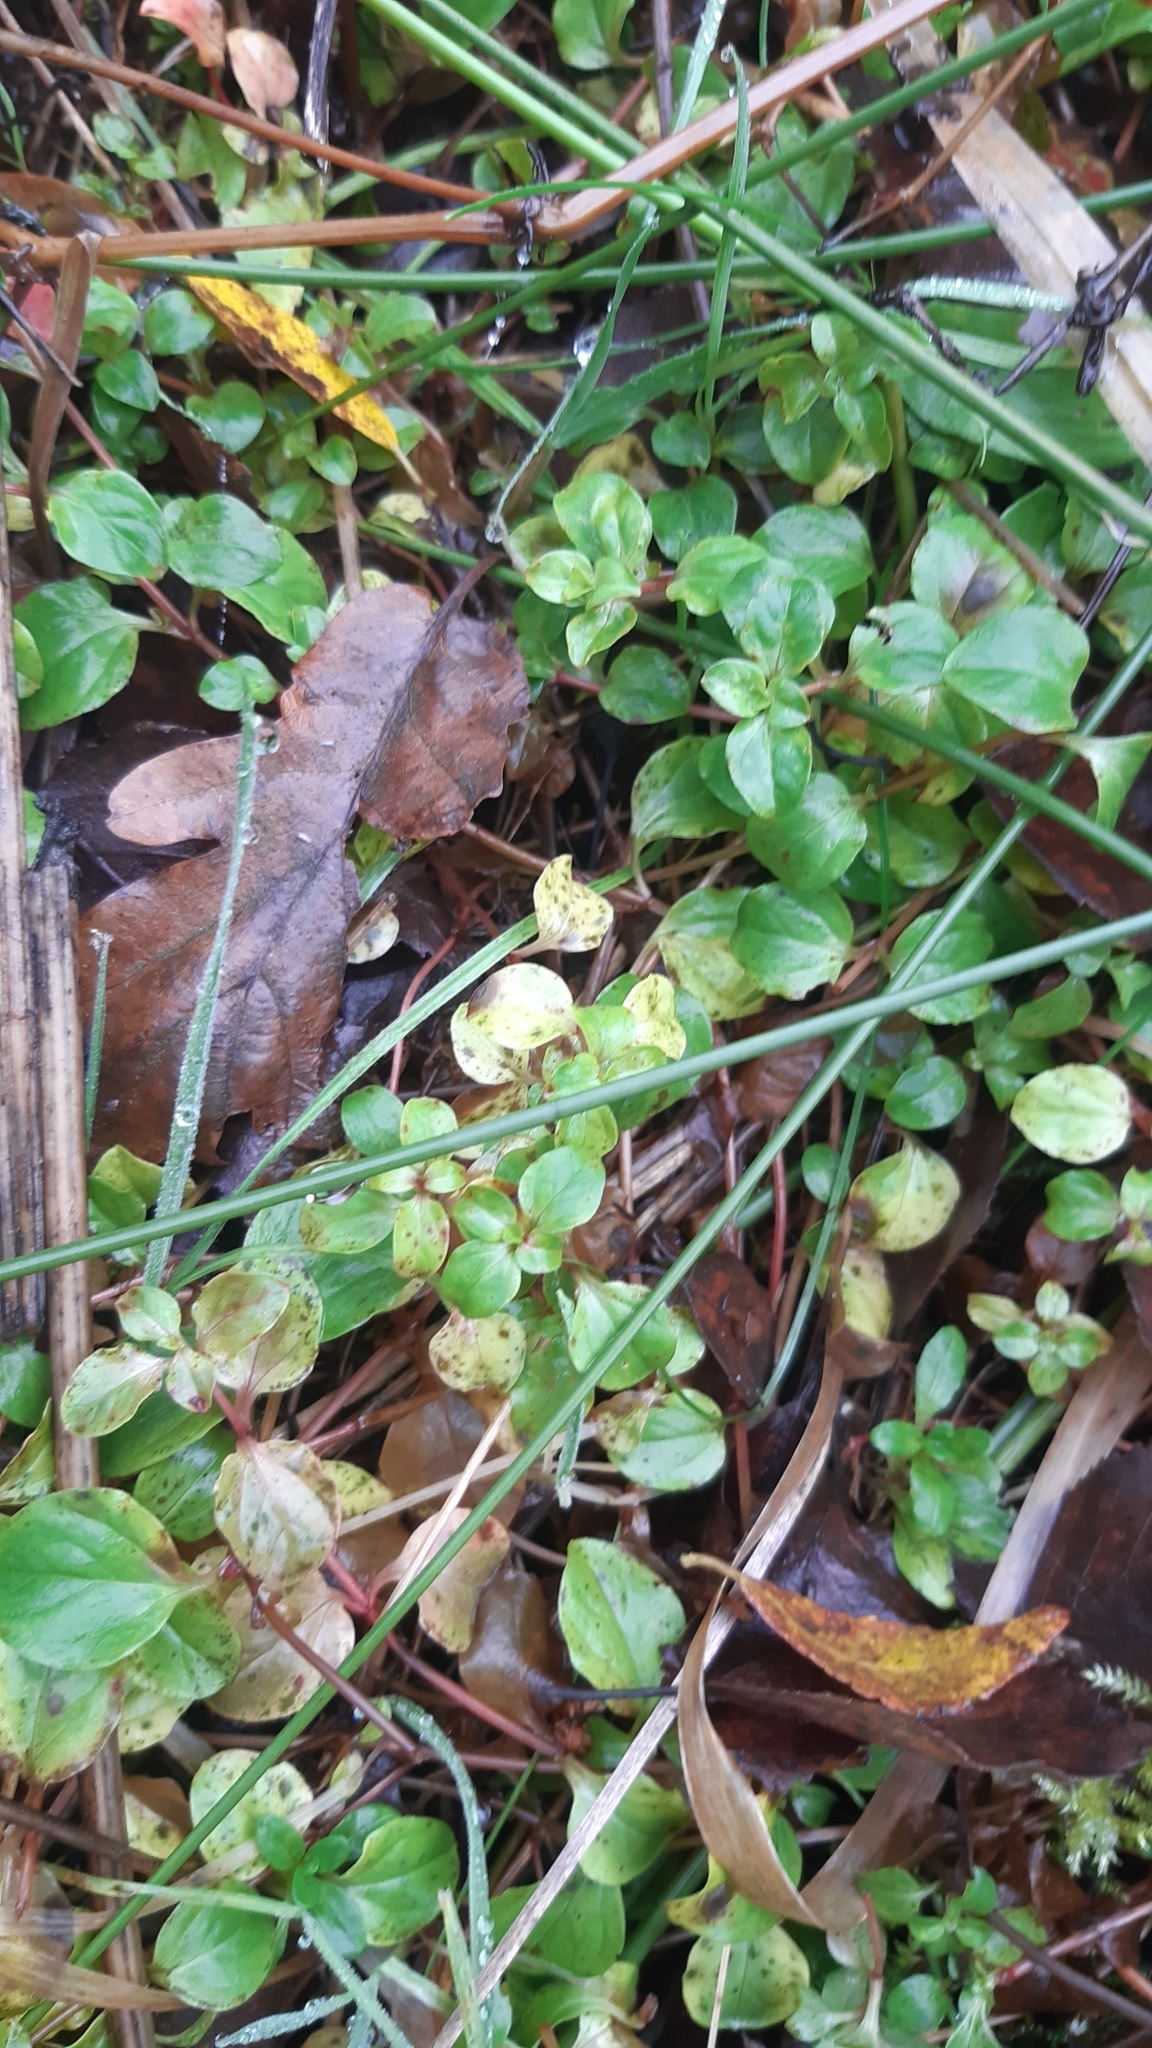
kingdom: Plantae
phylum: Tracheophyta
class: Magnoliopsida
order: Ericales
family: Primulaceae
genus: Lysimachia
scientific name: Lysimachia nemorum
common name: Yellow pimpernel
